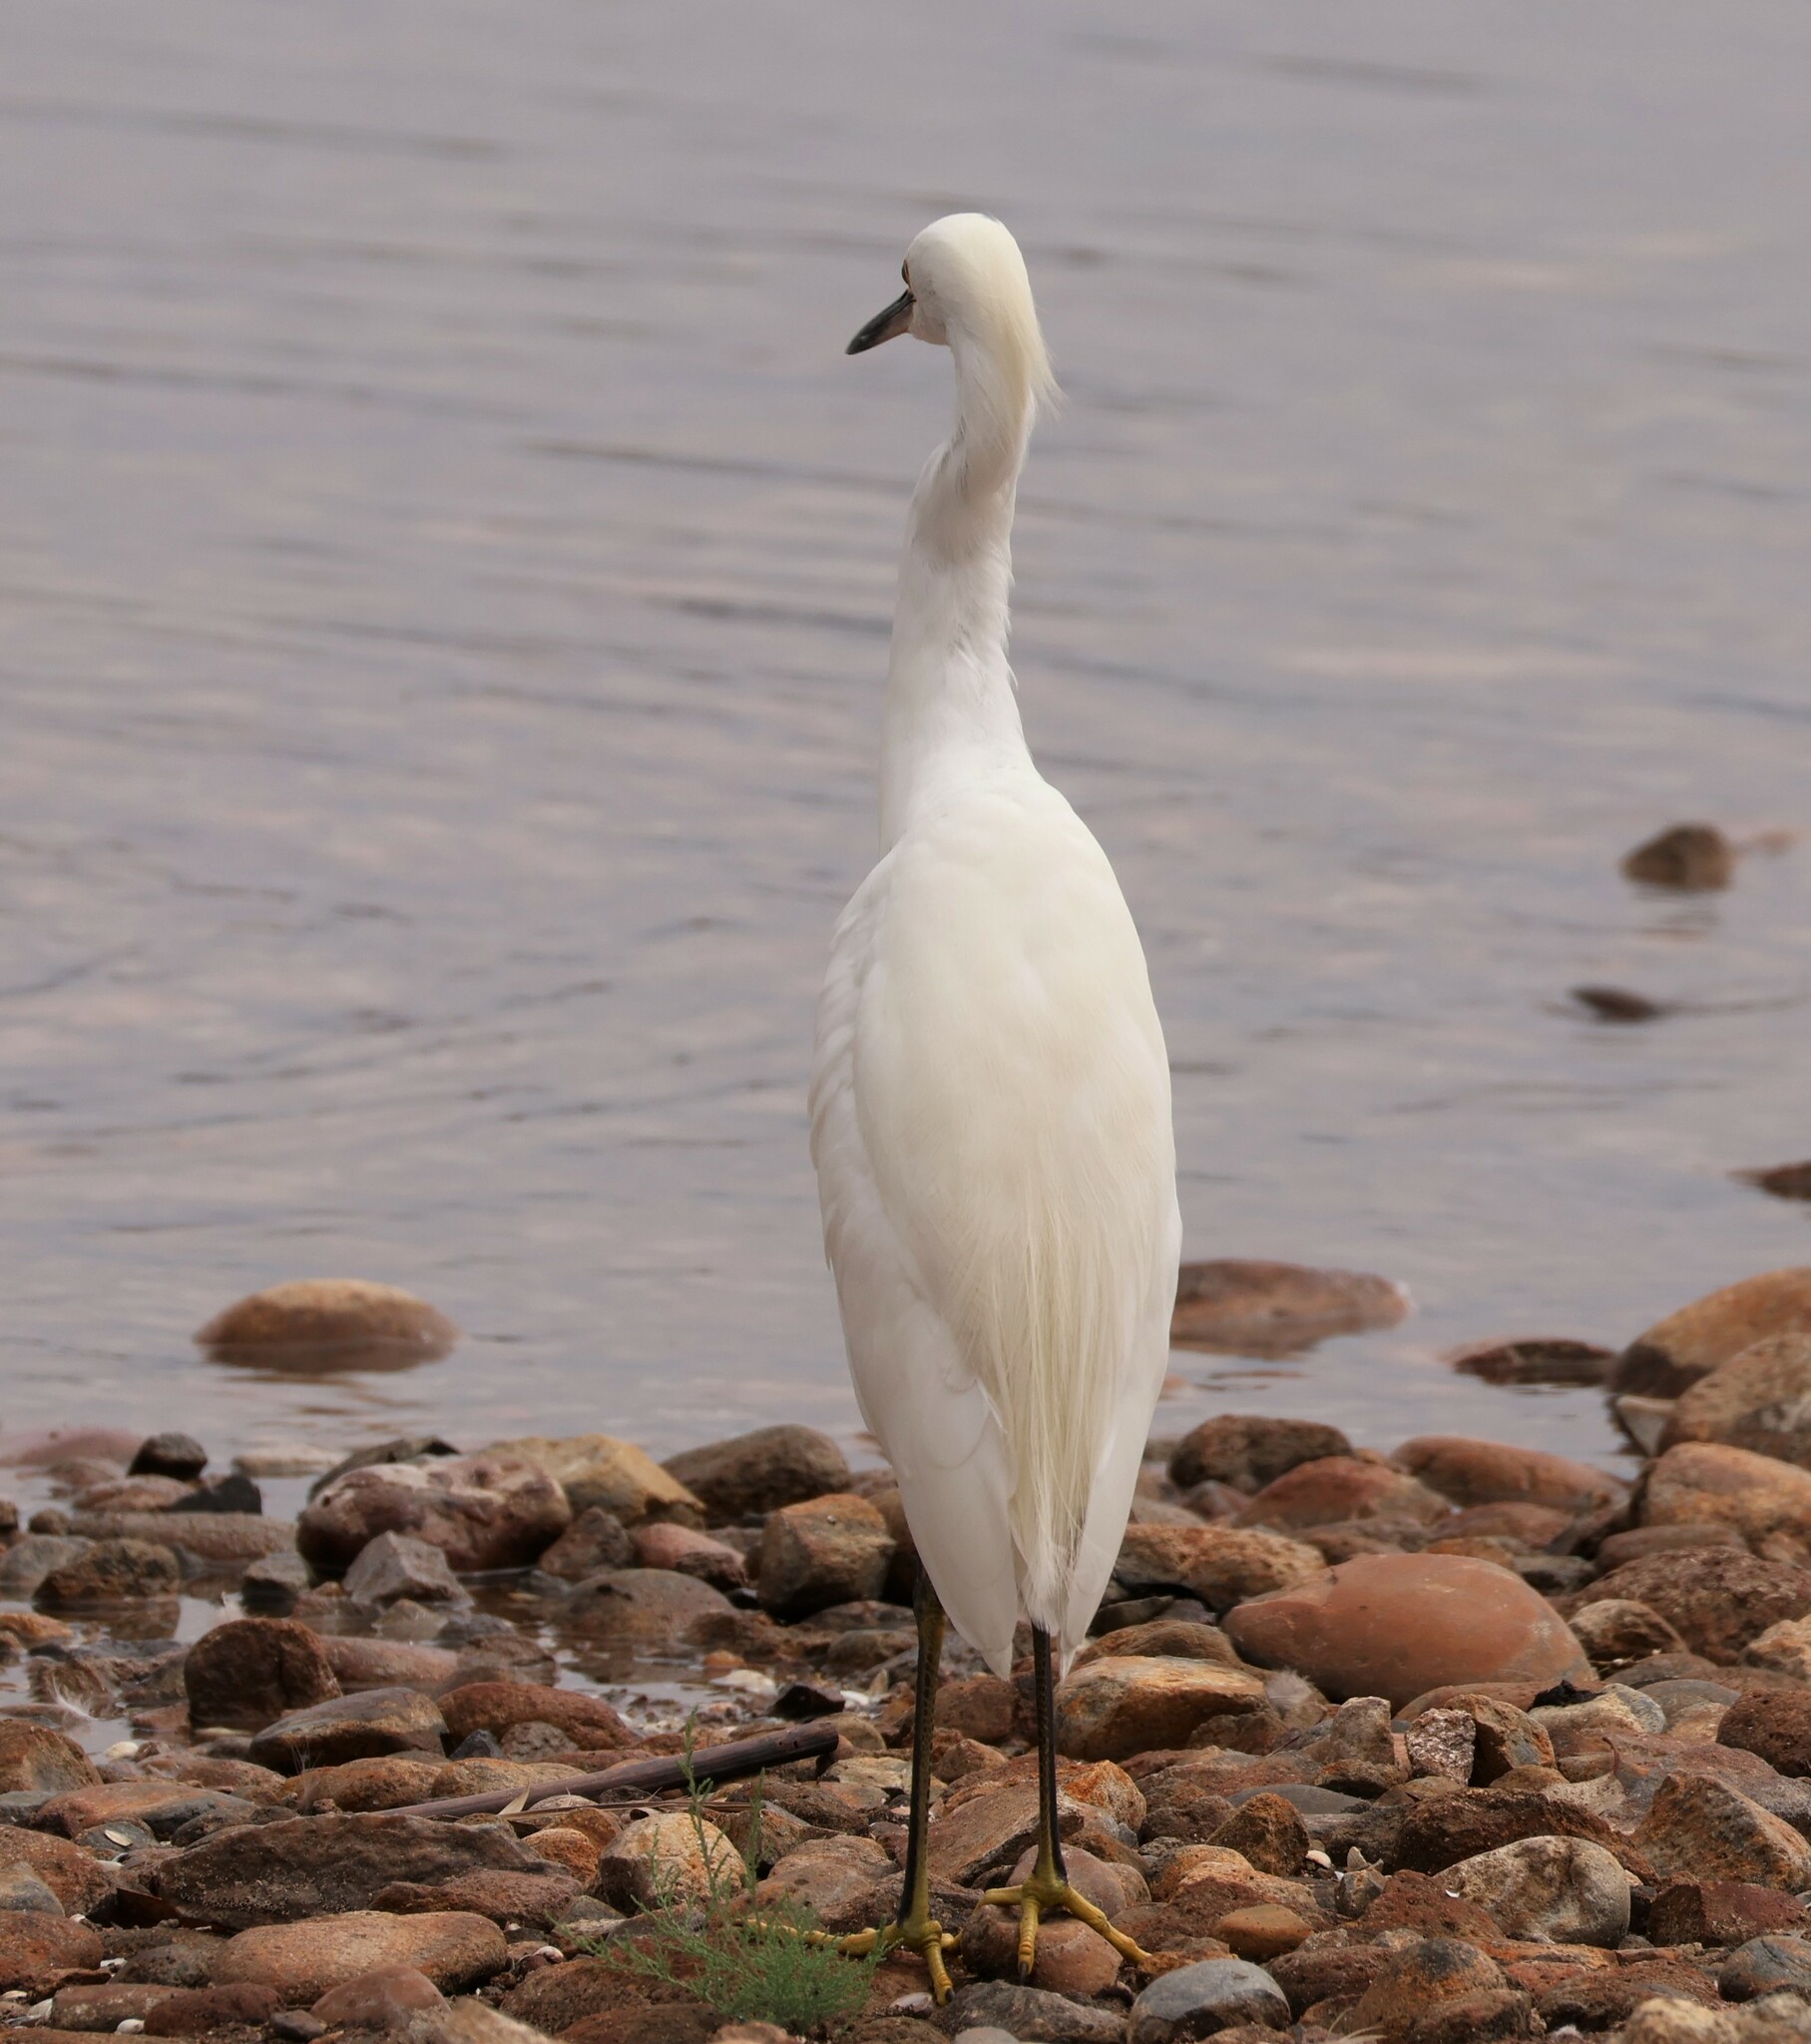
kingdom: Animalia
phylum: Chordata
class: Aves
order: Pelecaniformes
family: Ardeidae
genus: Egretta
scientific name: Egretta thula
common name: Snowy egret
